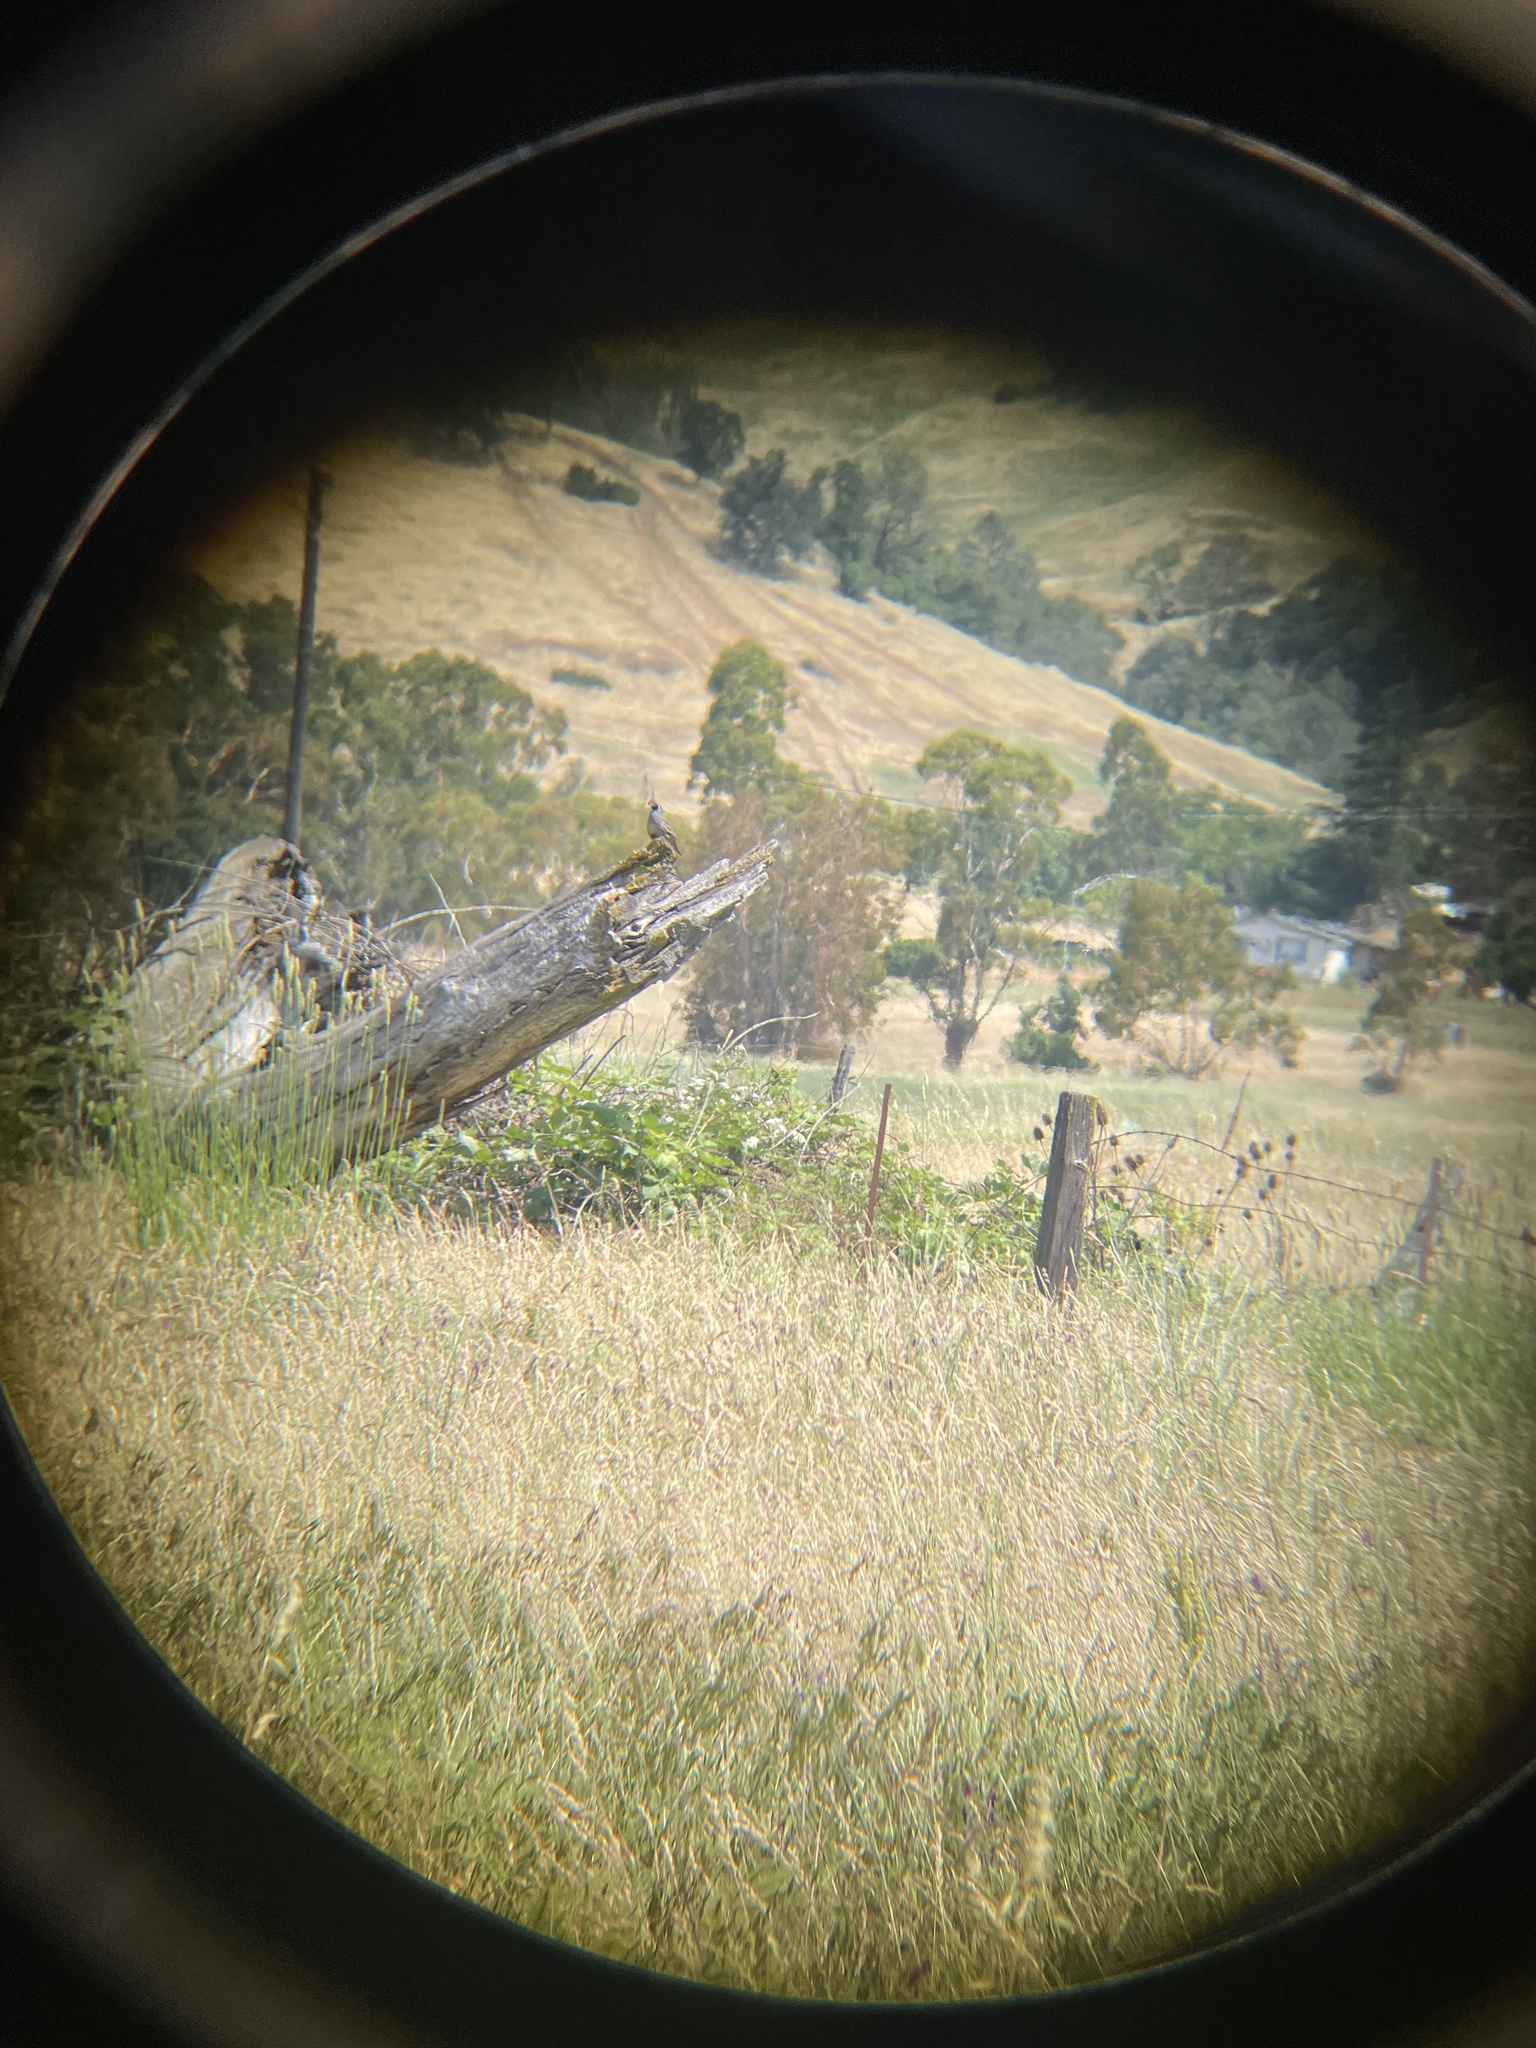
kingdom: Animalia
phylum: Chordata
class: Aves
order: Galliformes
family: Odontophoridae
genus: Callipepla
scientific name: Callipepla californica
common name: California quail
